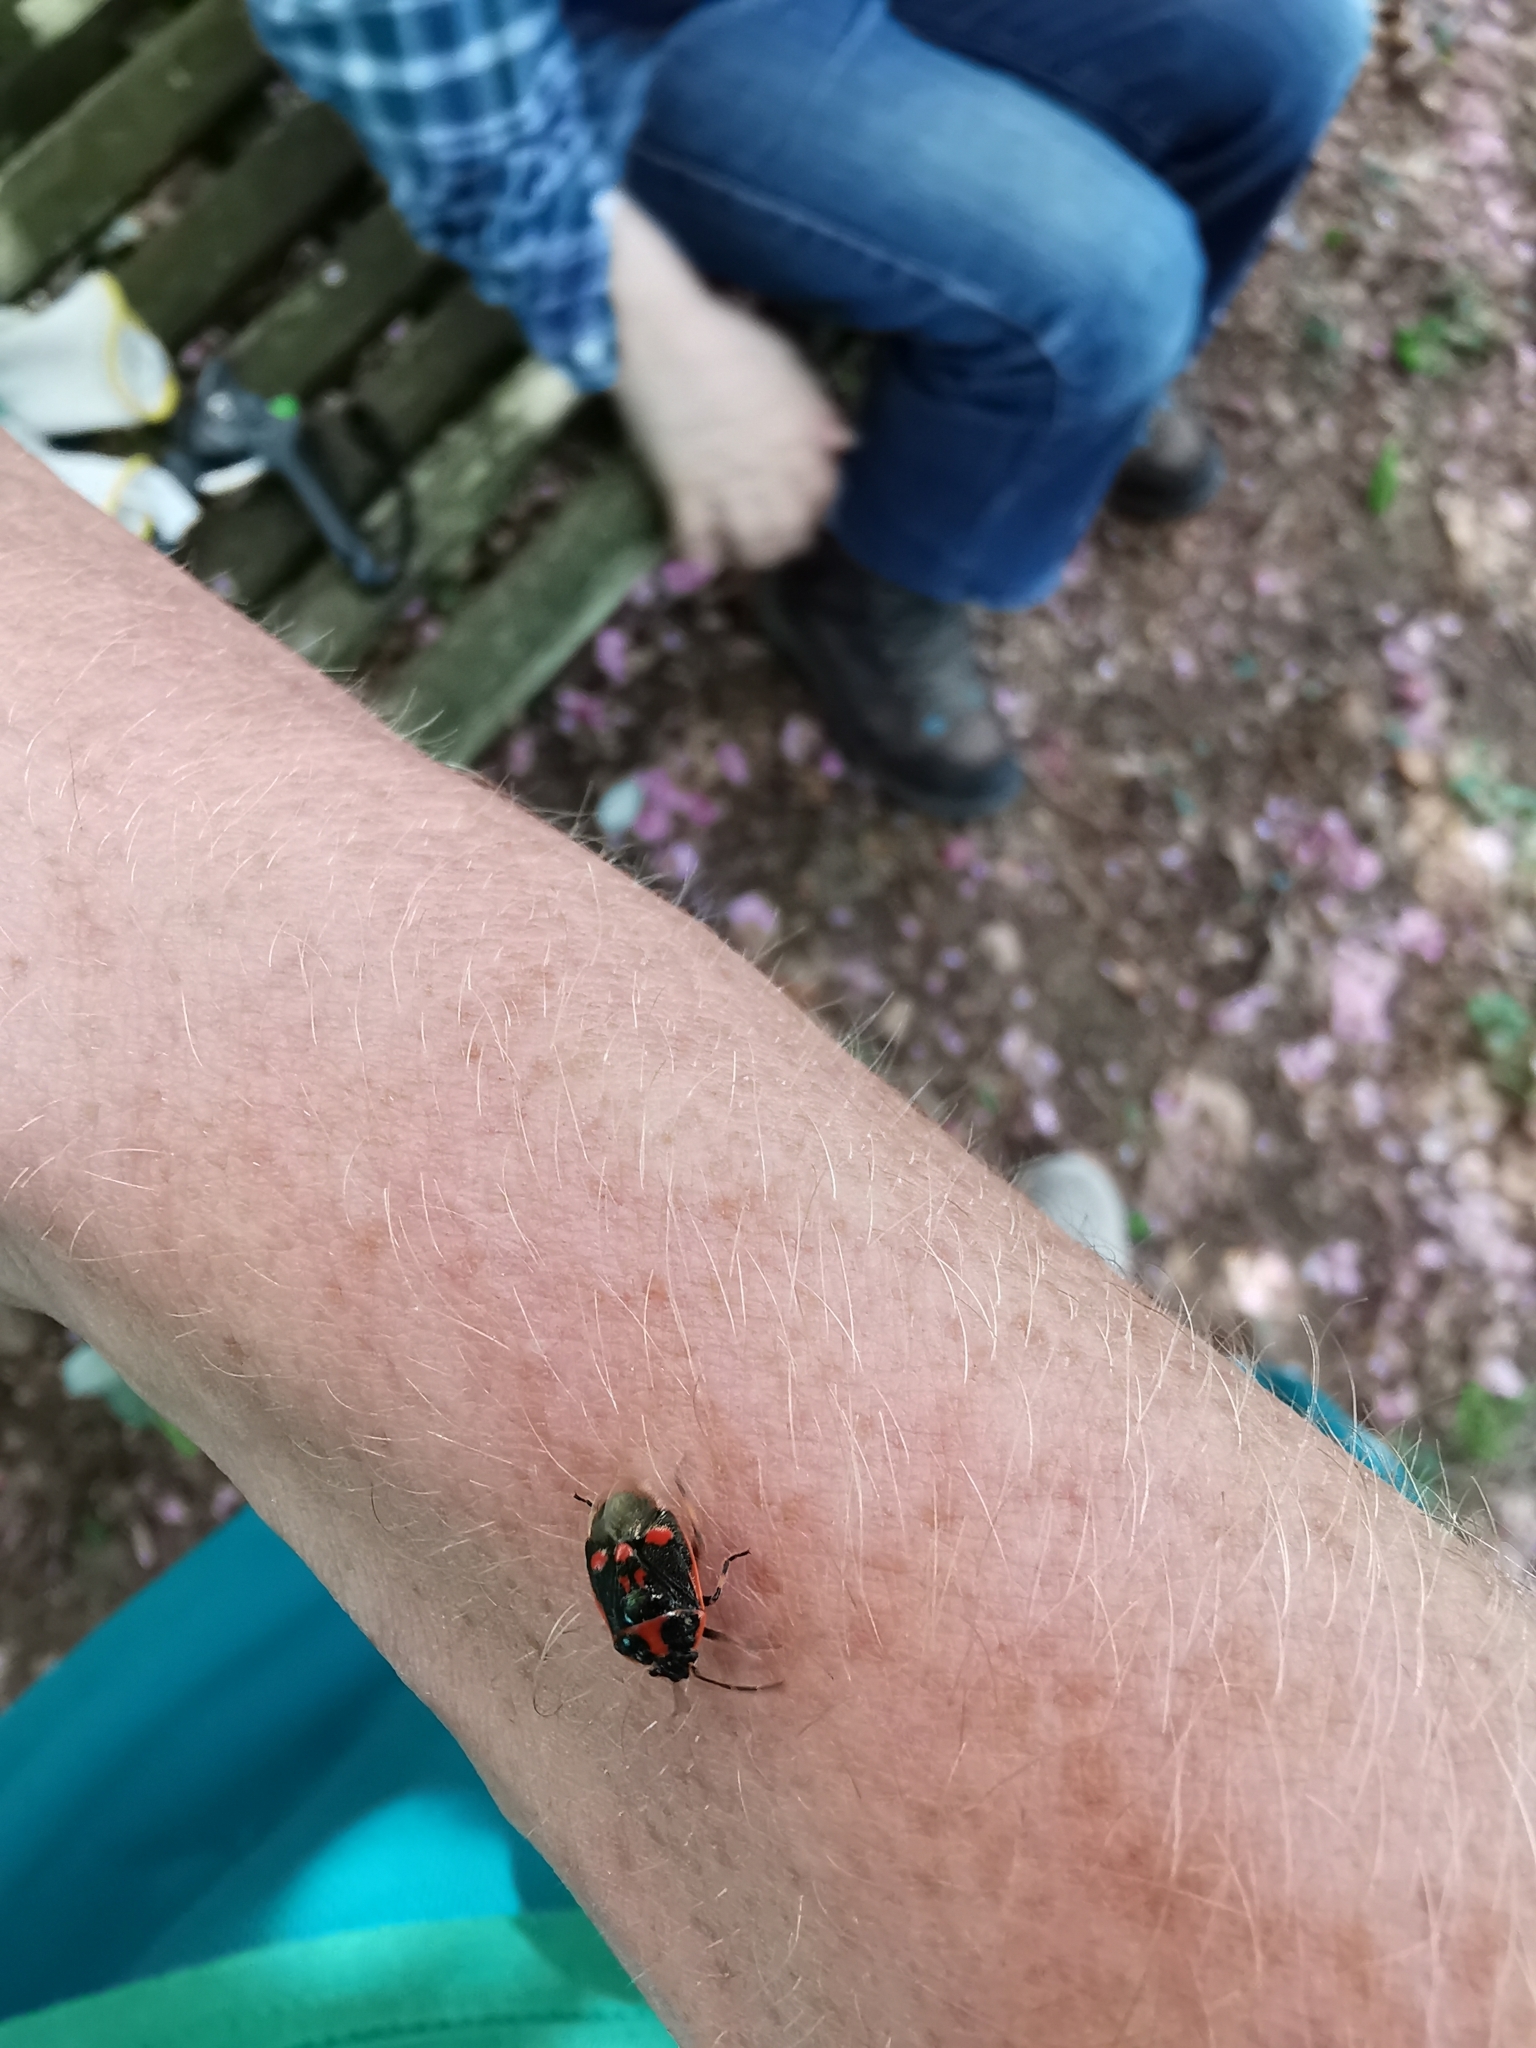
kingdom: Animalia
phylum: Arthropoda
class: Insecta
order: Hemiptera
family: Pentatomidae
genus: Eurydema
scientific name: Eurydema oleracea
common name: Cabbage bug
